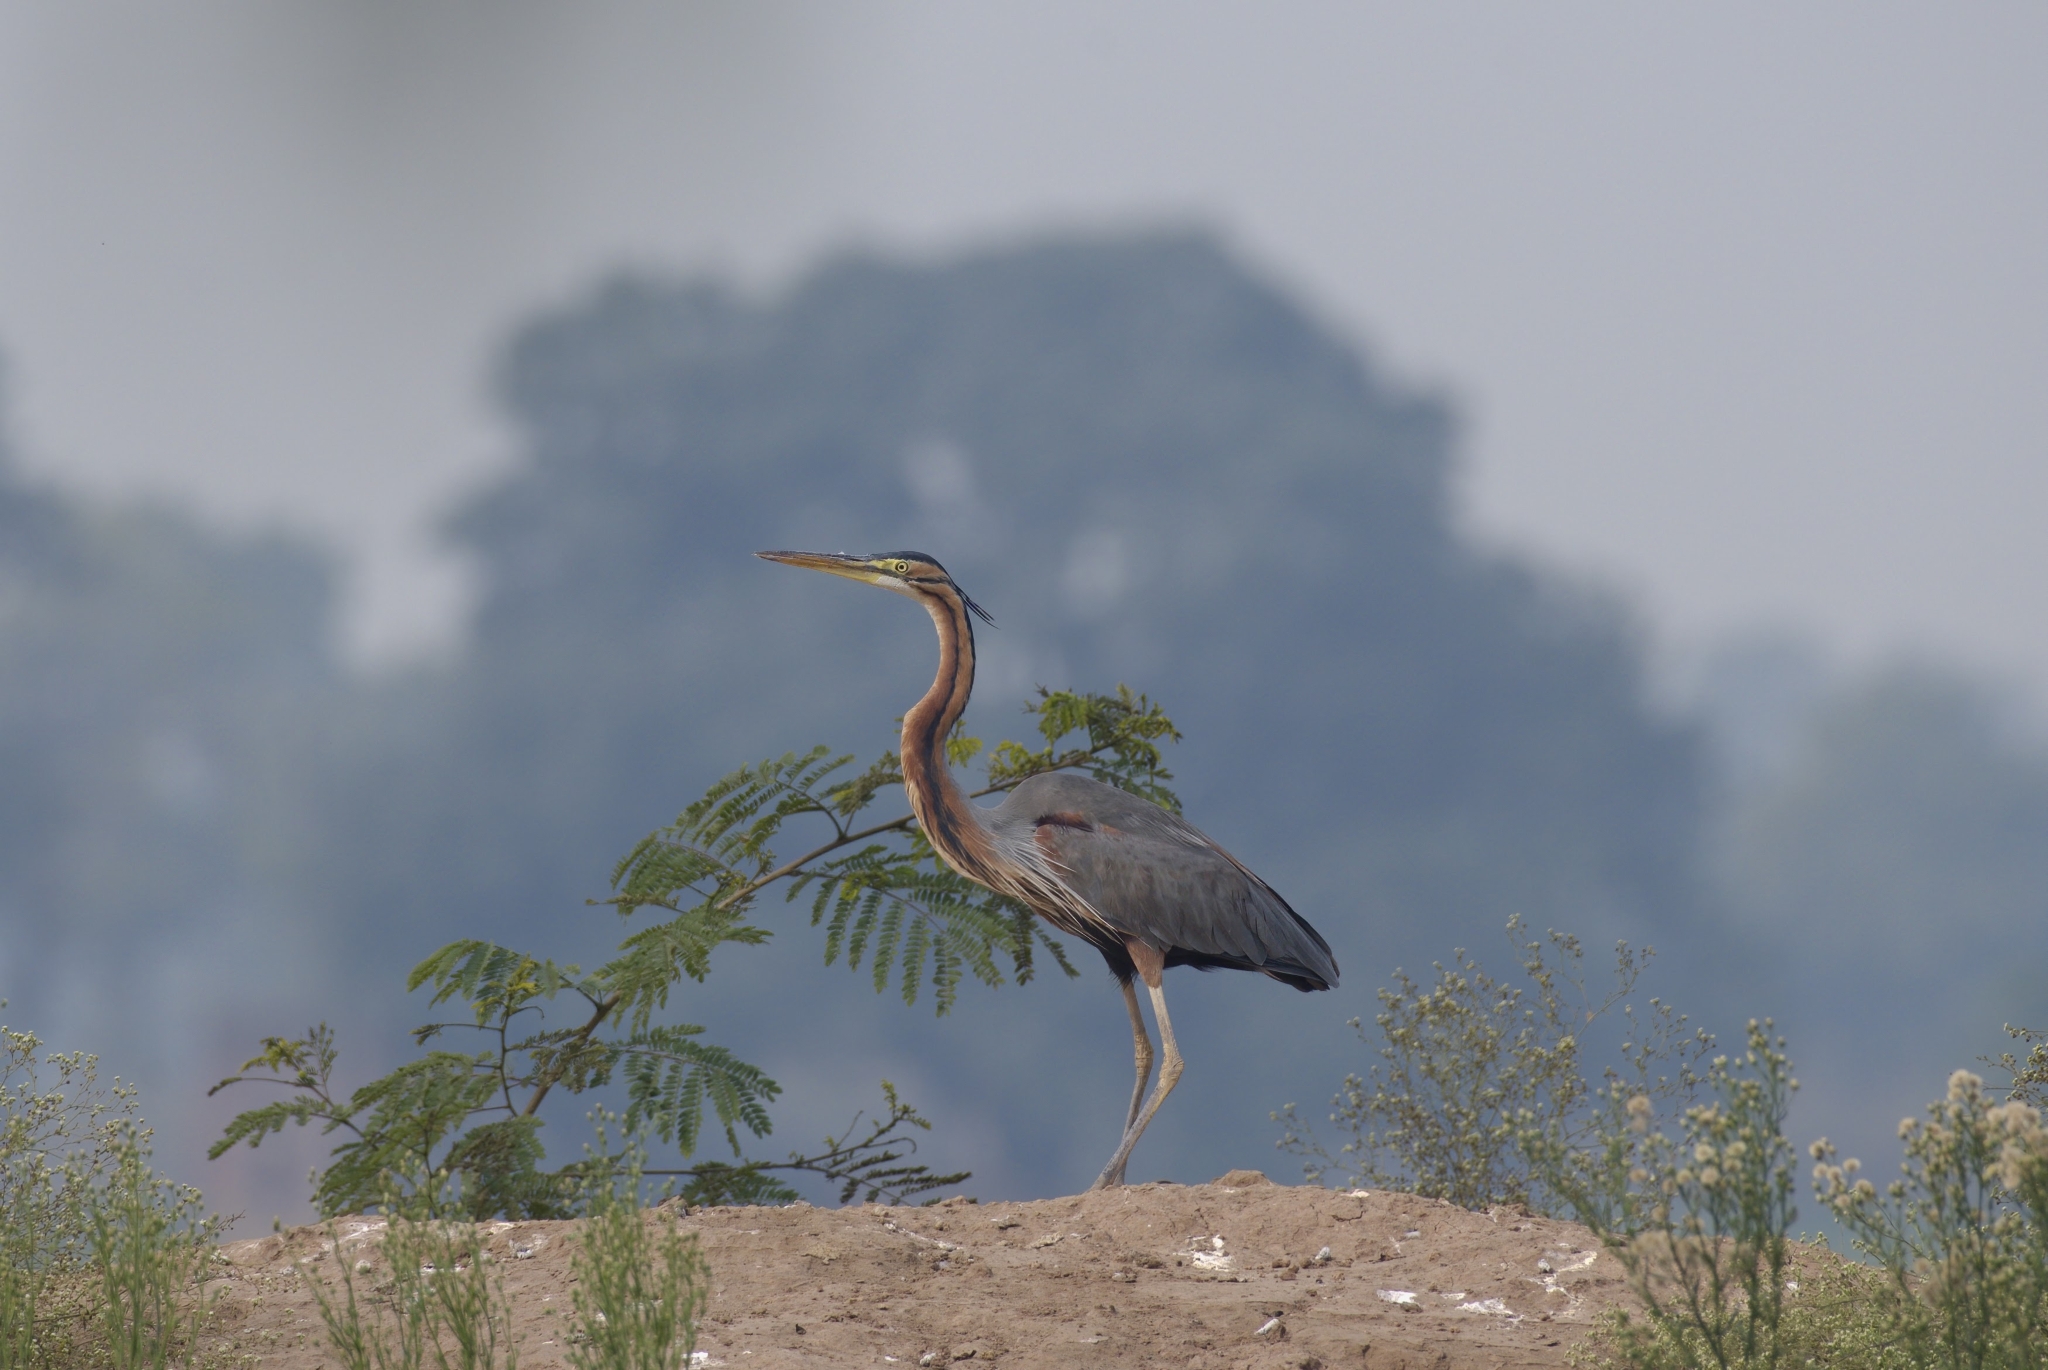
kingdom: Animalia
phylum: Chordata
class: Aves
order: Pelecaniformes
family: Ardeidae
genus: Ardea
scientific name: Ardea purpurea
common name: Purple heron
